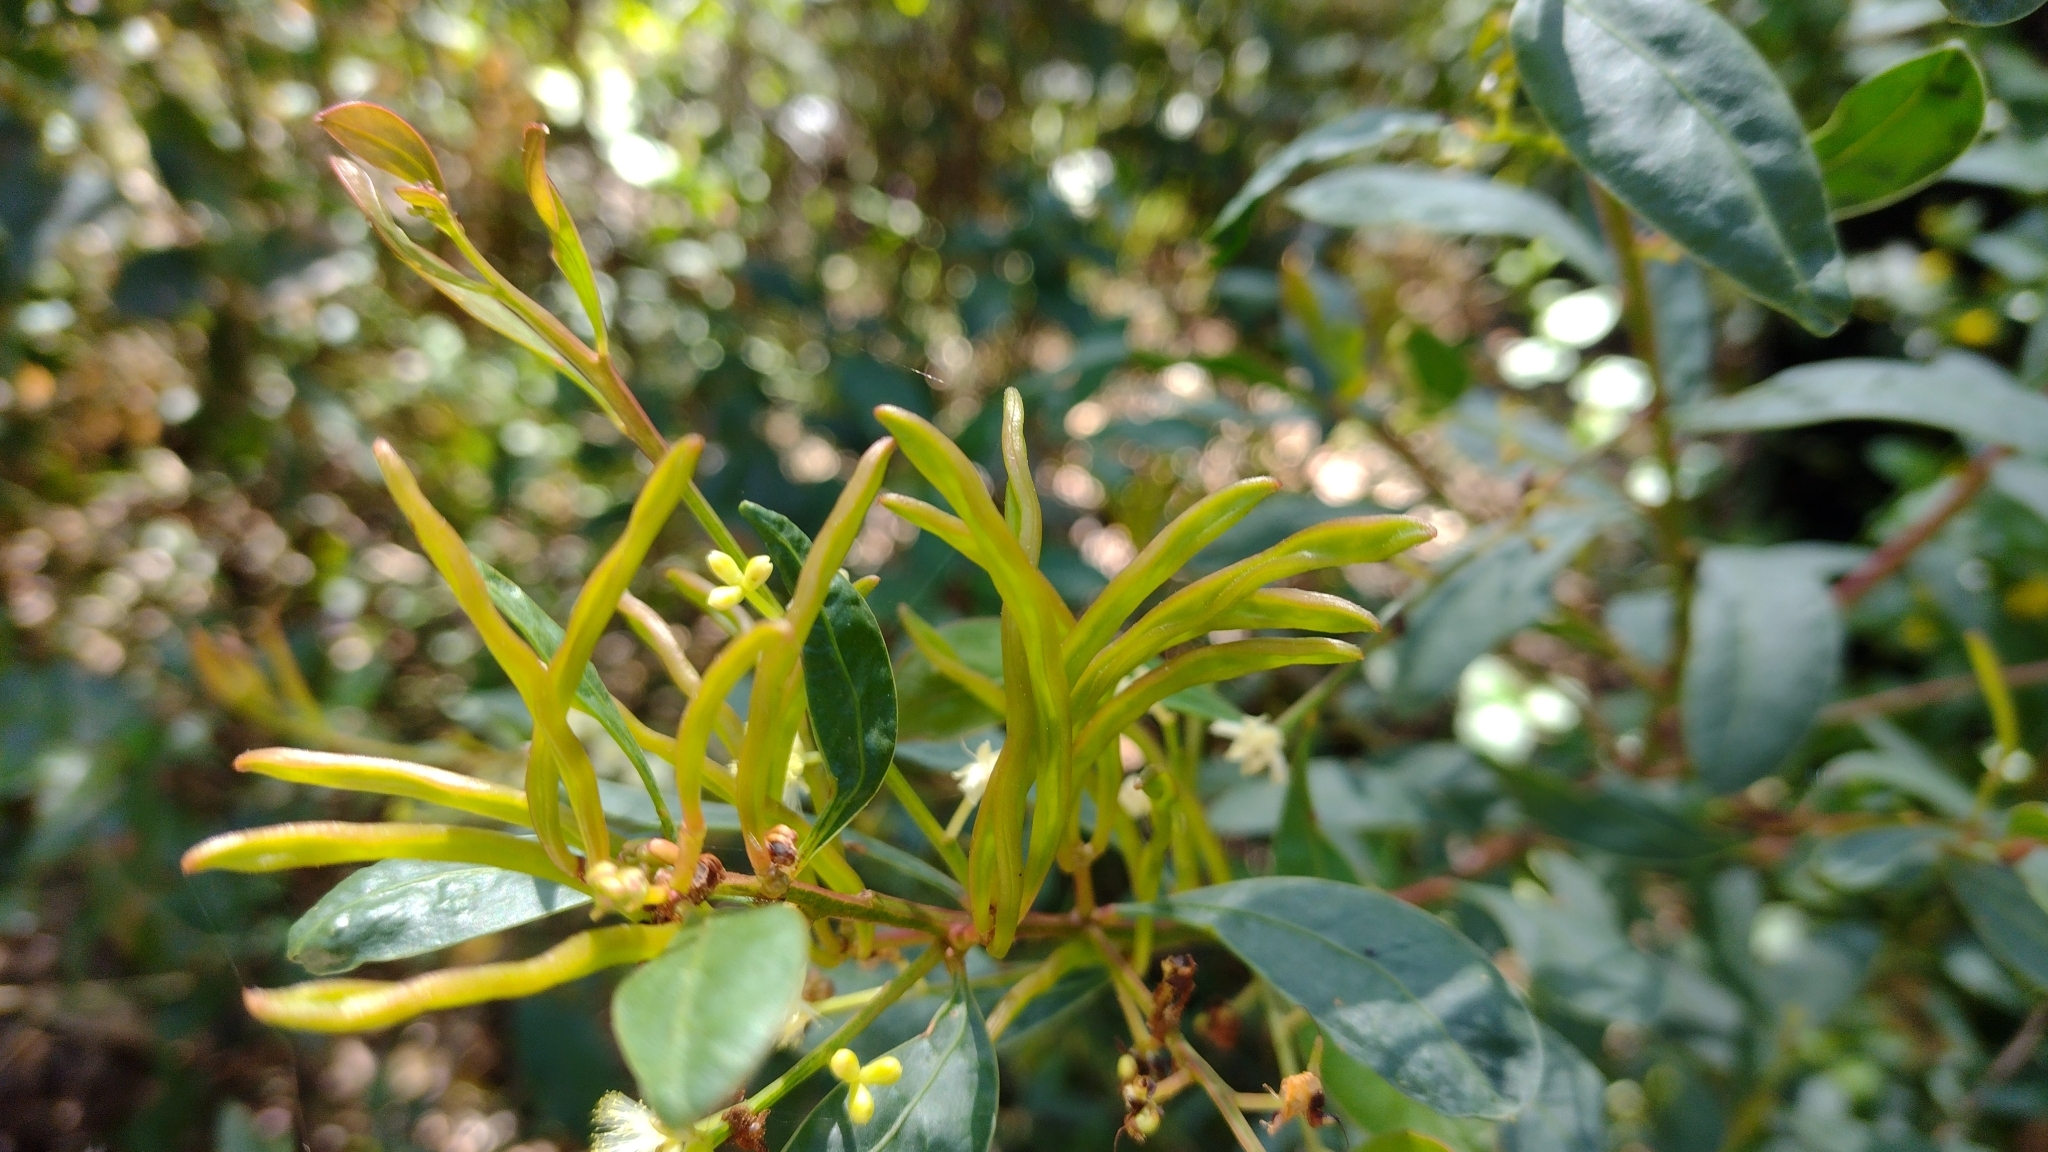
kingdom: Plantae
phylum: Tracheophyta
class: Magnoliopsida
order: Fabales
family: Fabaceae
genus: Acacia
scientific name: Acacia myrtifolia
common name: Myrtle wattle
